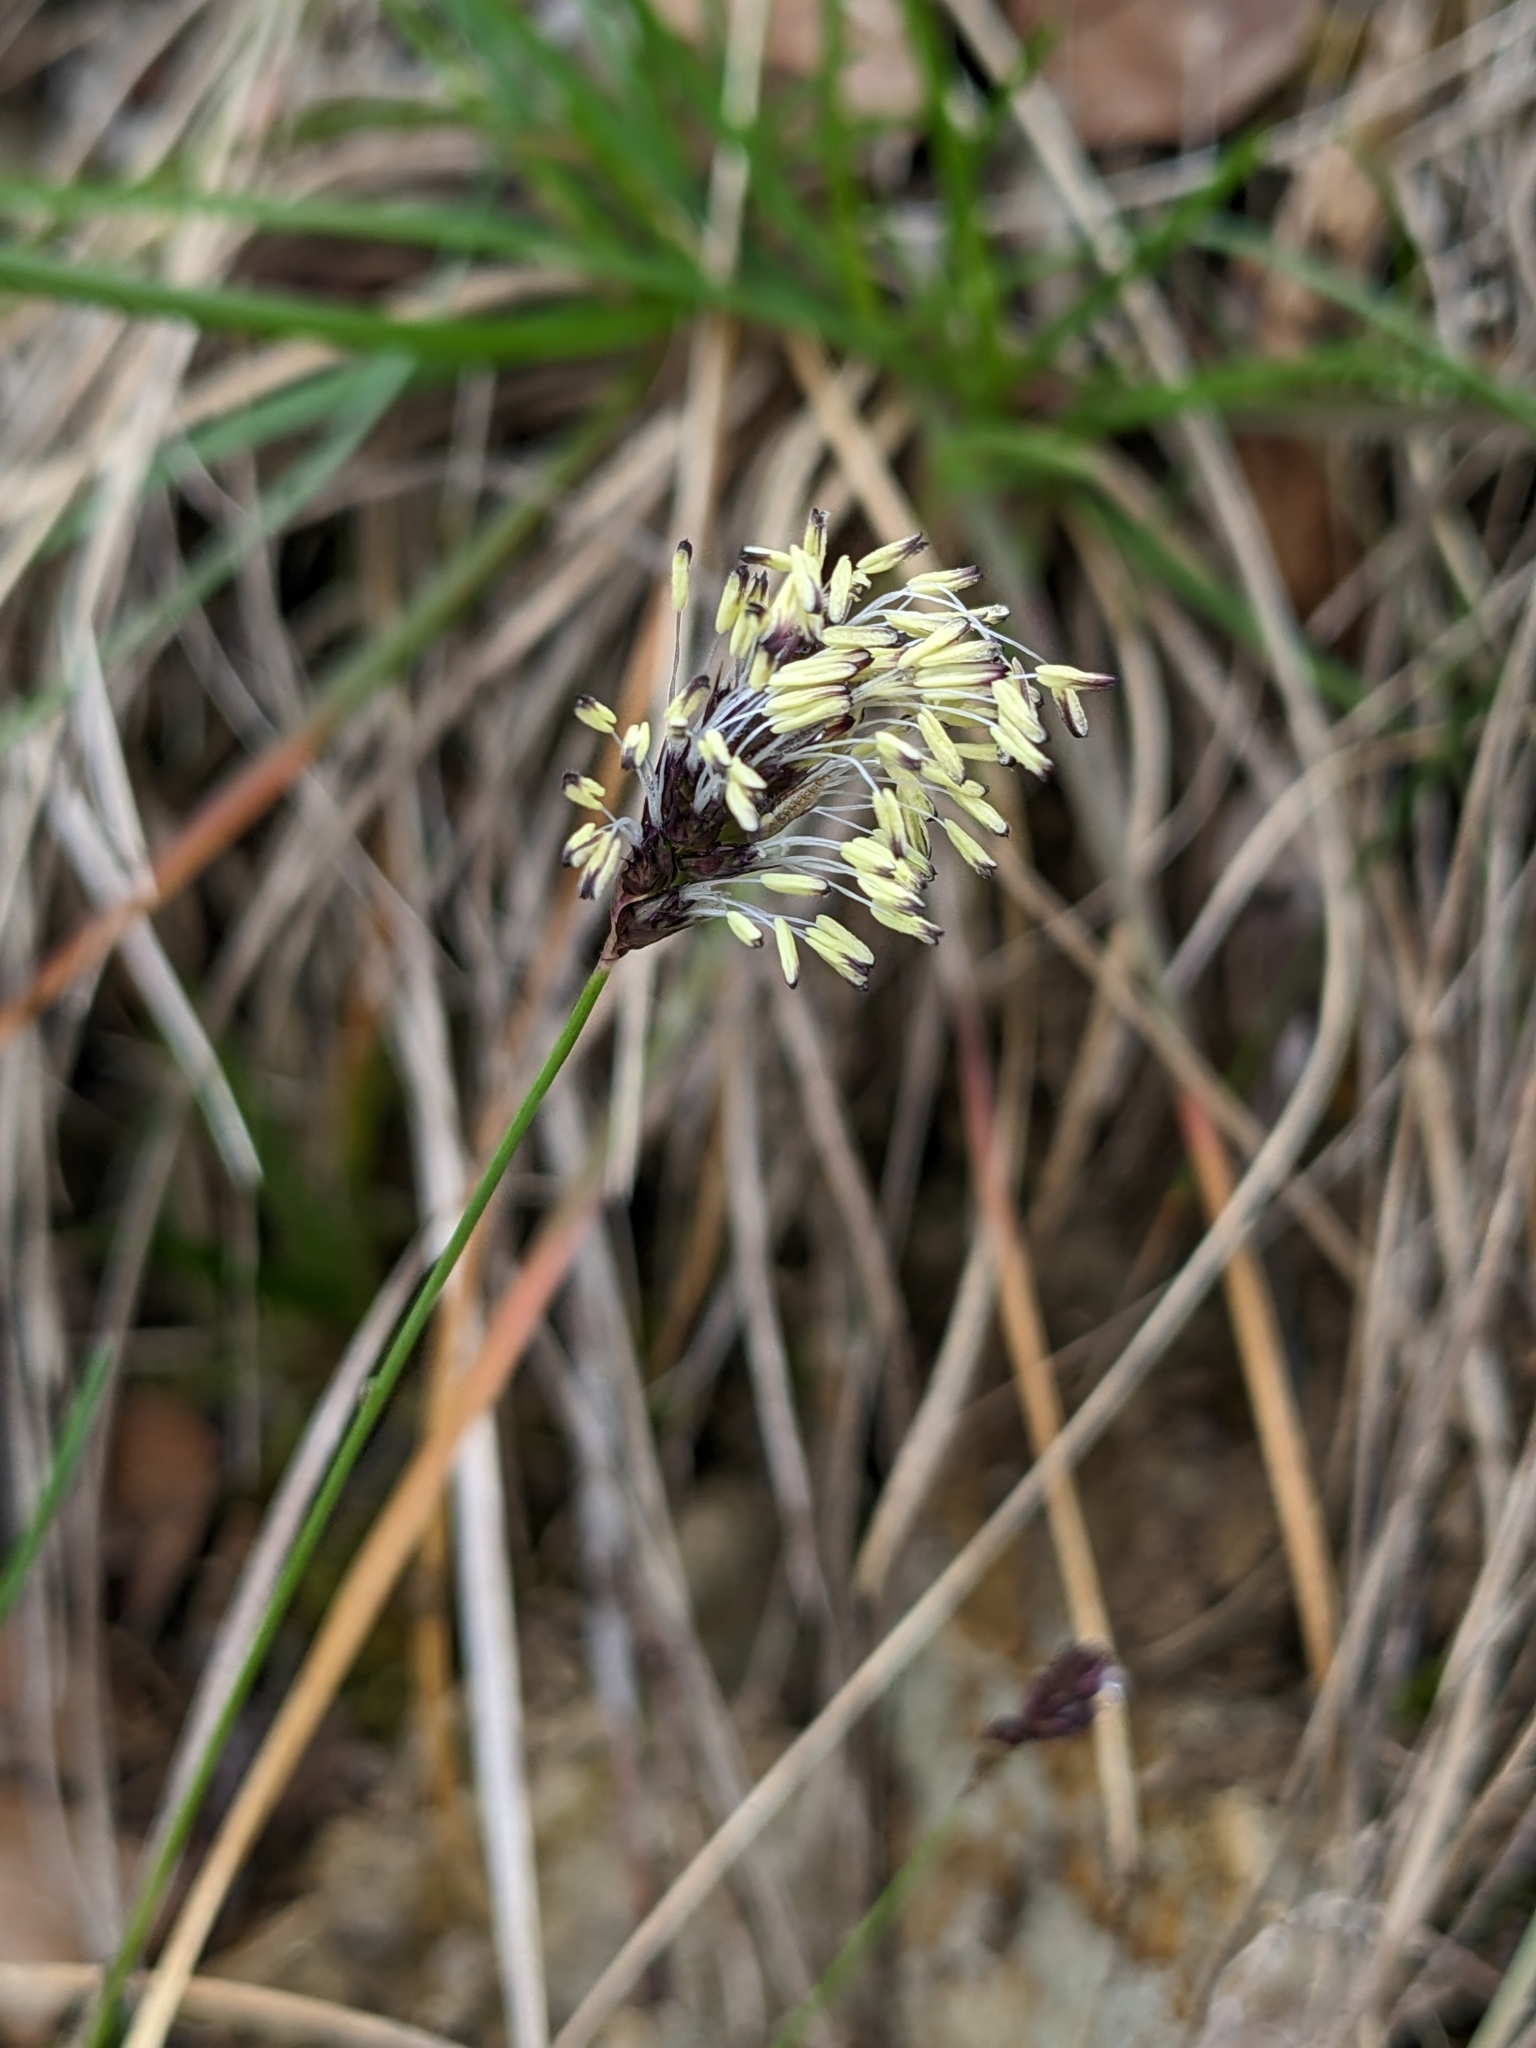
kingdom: Plantae
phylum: Tracheophyta
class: Liliopsida
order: Poales
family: Poaceae
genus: Sesleria
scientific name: Sesleria caerulea
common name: Blue moor-grass
